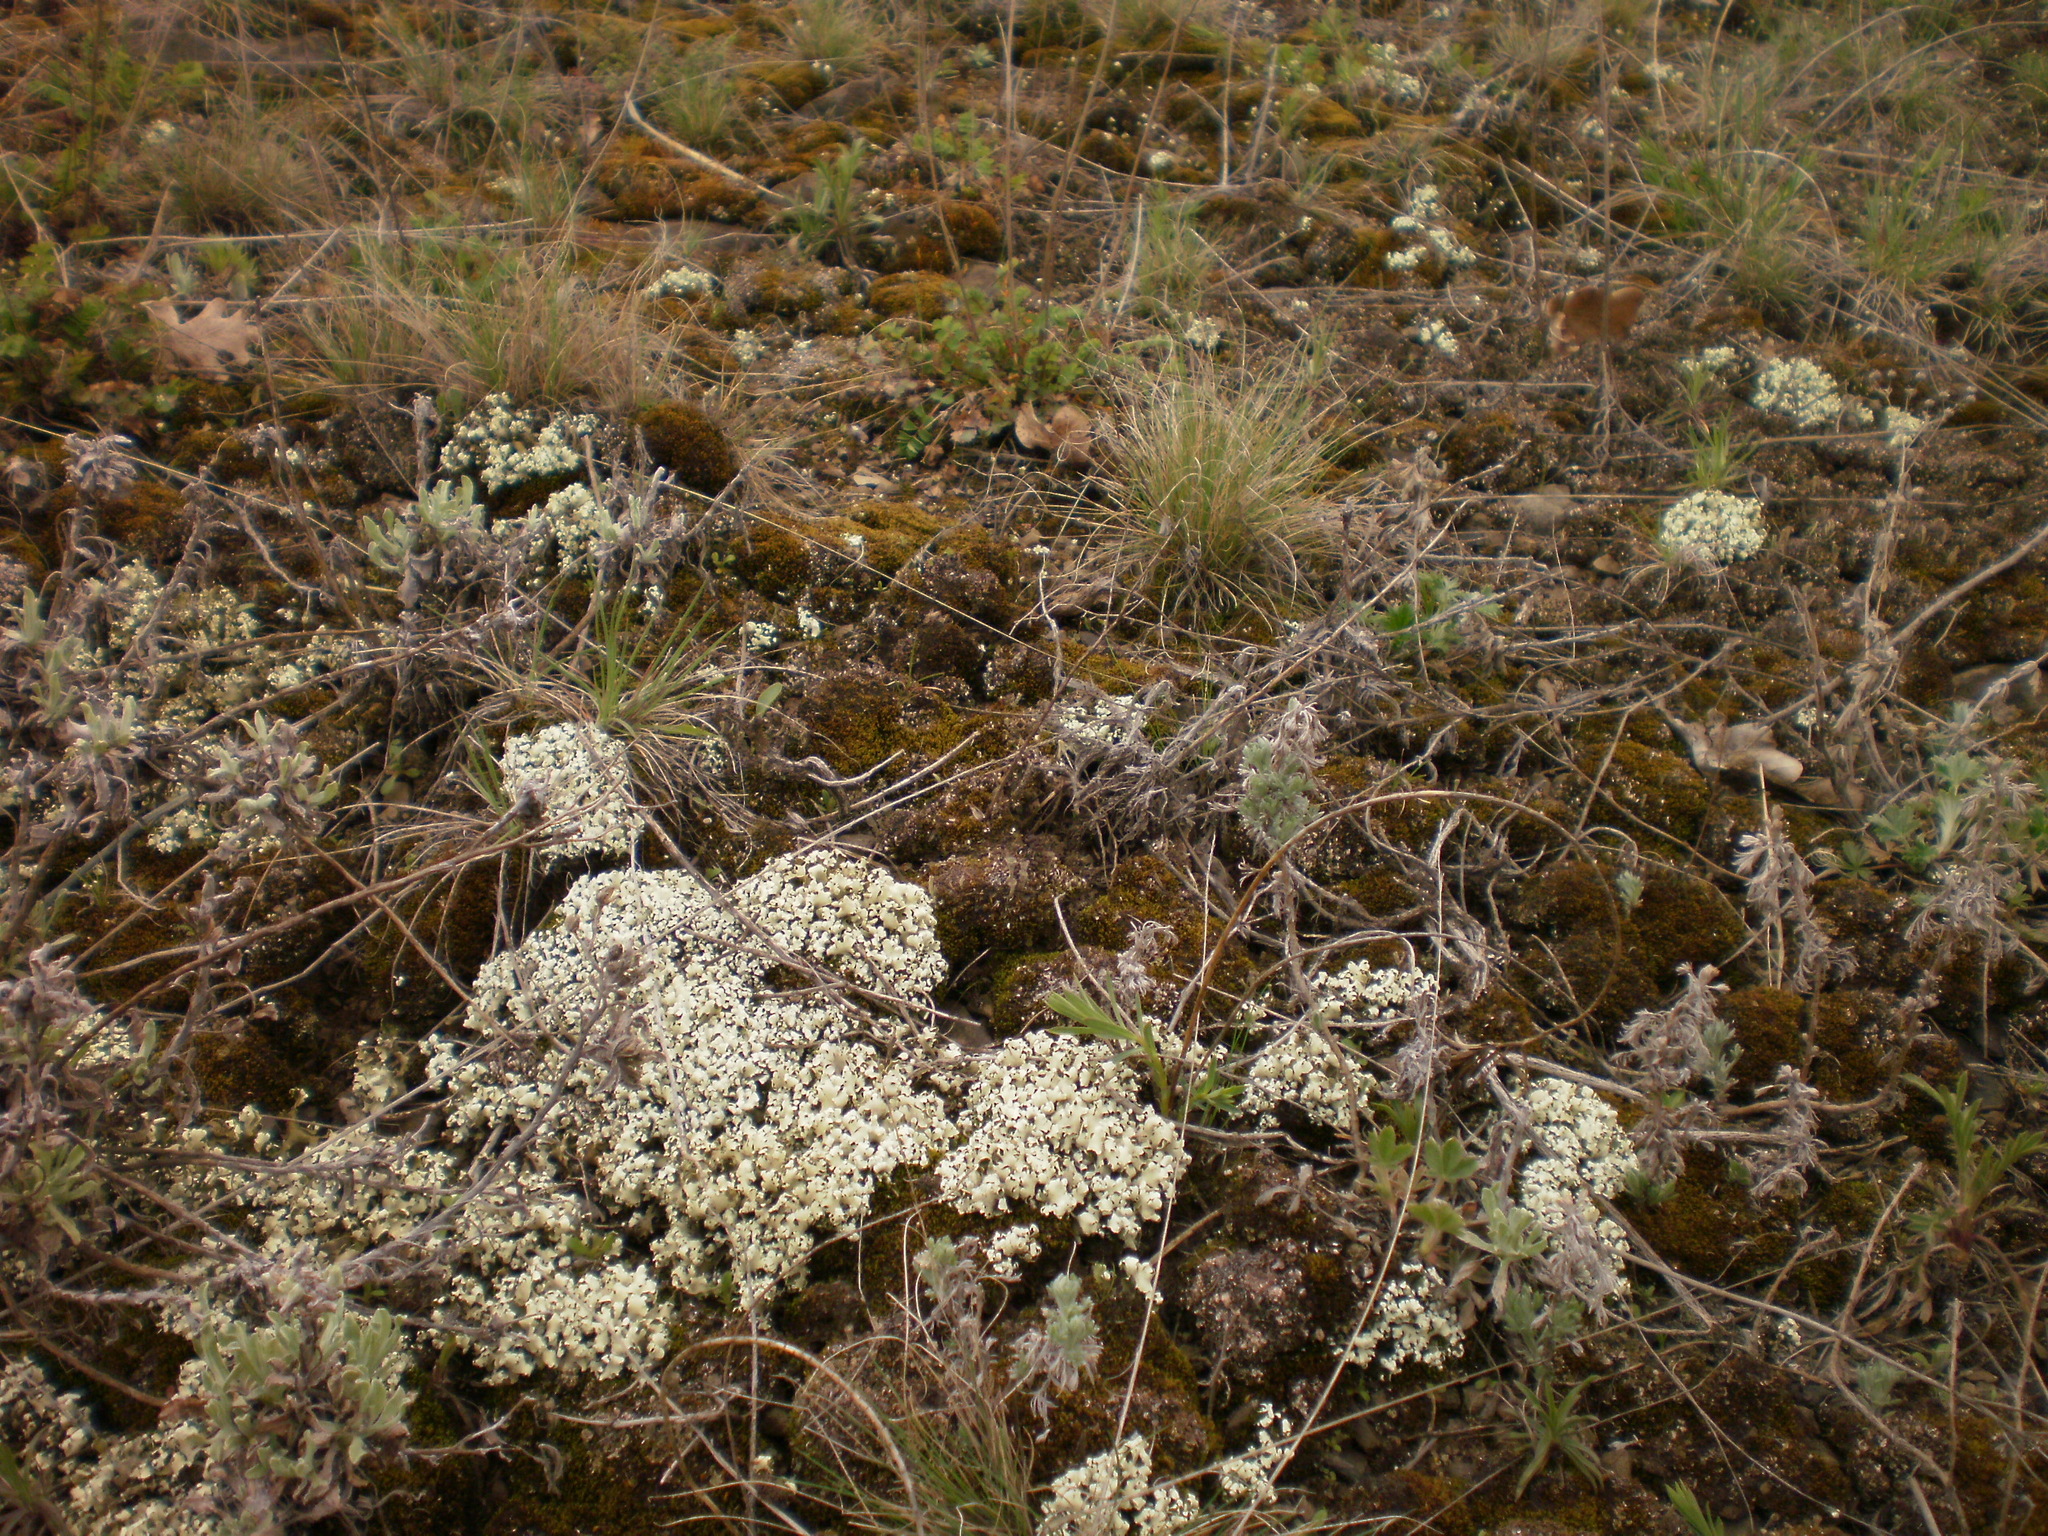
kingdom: Fungi
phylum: Ascomycota
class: Lecanoromycetes
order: Lecanorales
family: Cladoniaceae
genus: Cladonia
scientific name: Cladonia foliacea
